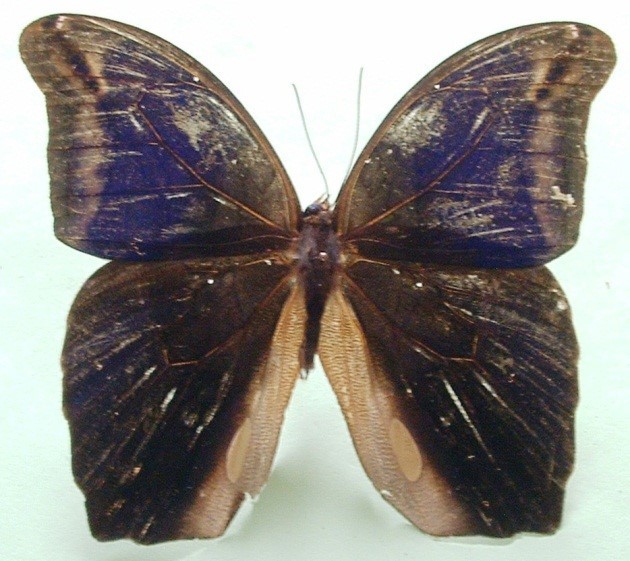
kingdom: Animalia
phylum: Arthropoda
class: Insecta
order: Lepidoptera
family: Nymphalidae
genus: Eryphanis
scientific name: Eryphanis lycomedon
